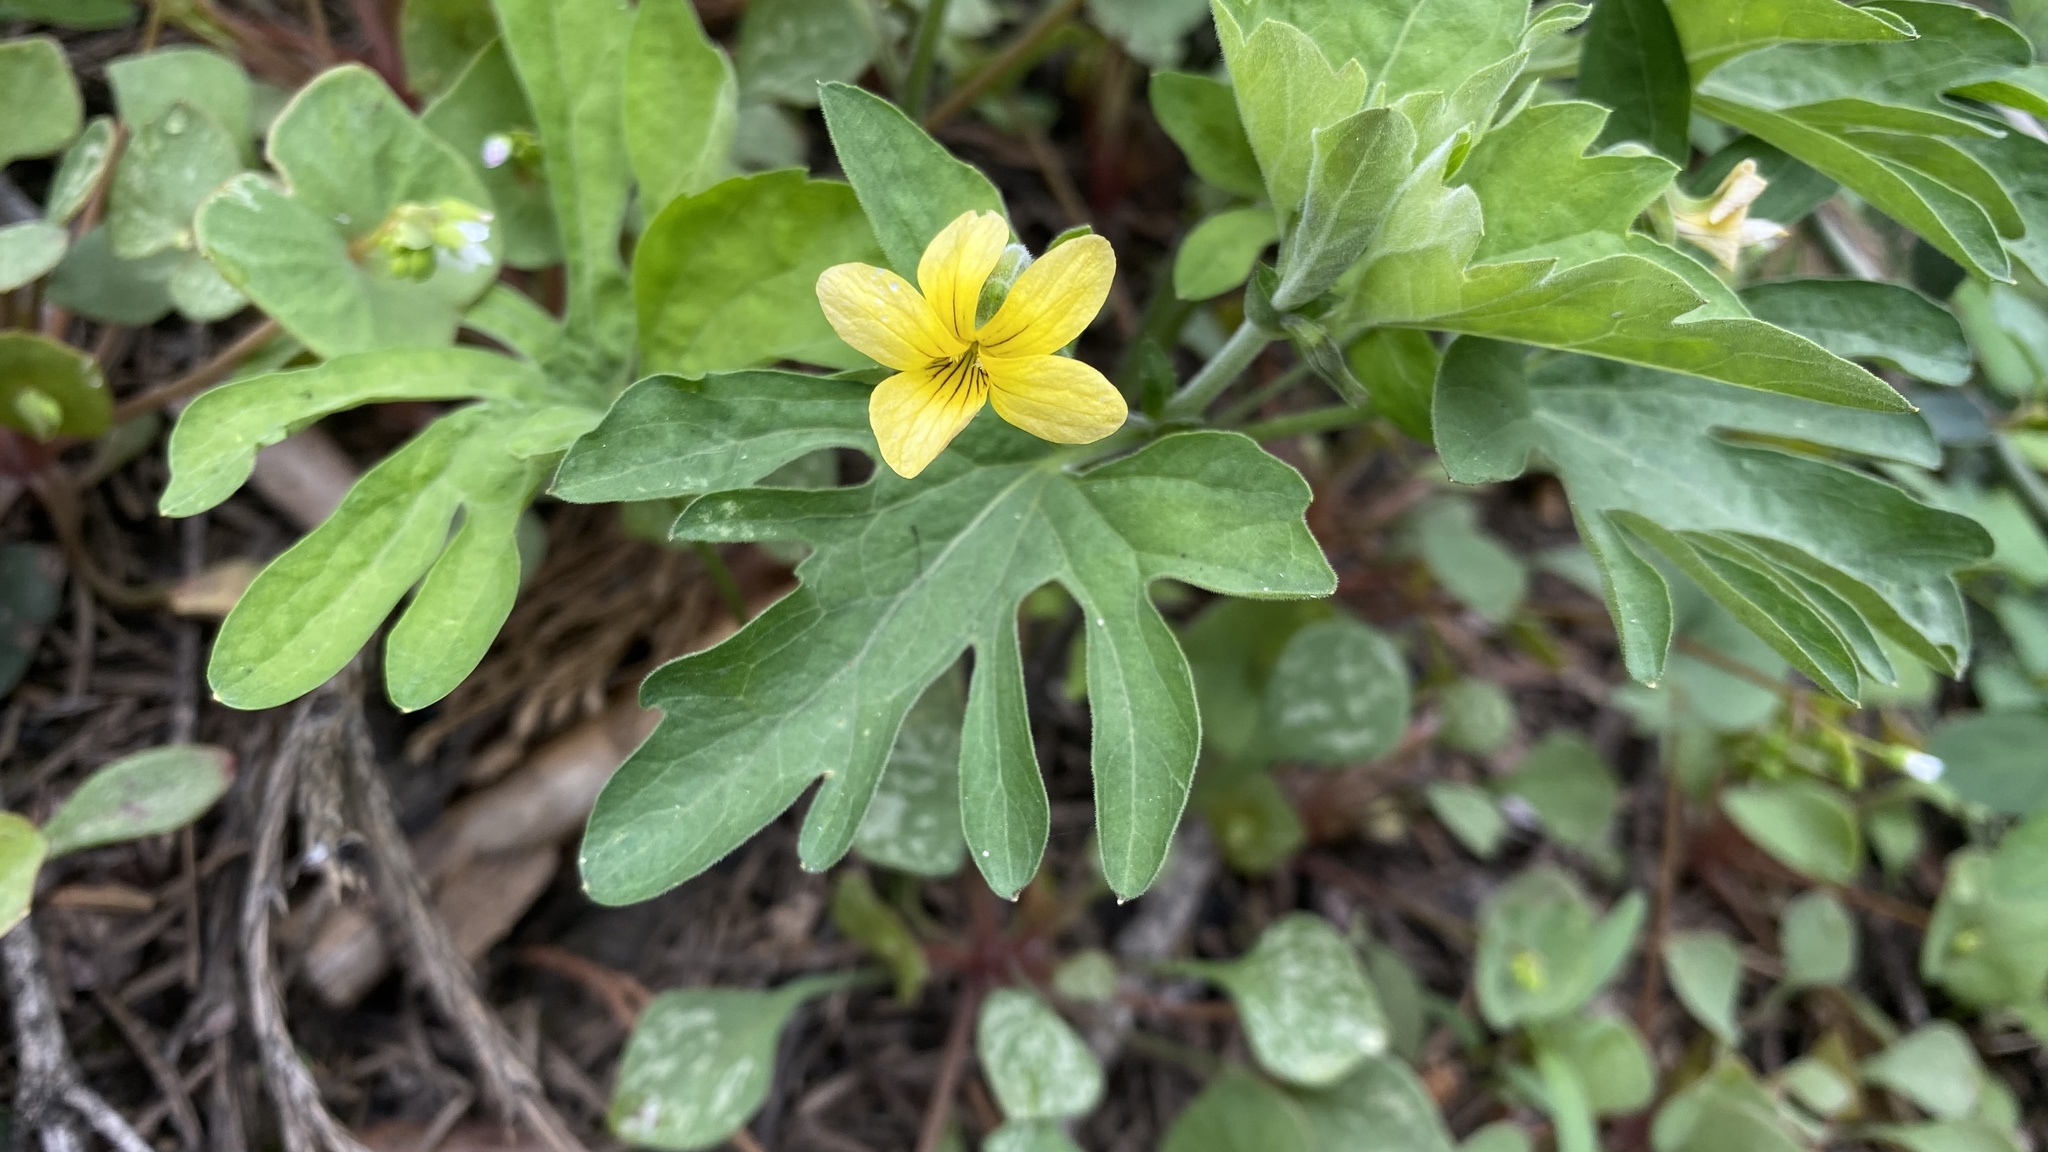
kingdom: Plantae
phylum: Tracheophyta
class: Magnoliopsida
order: Malpighiales
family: Violaceae
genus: Viola
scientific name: Viola lobata
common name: Pine violet
